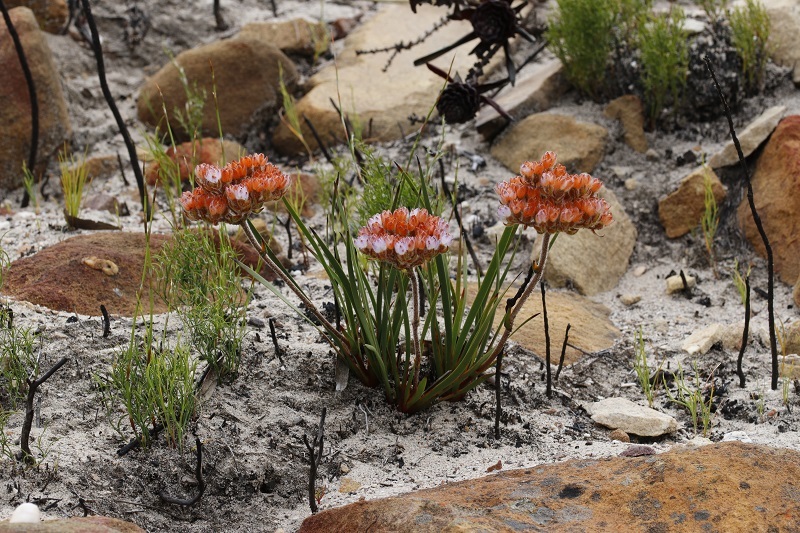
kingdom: Plantae
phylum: Tracheophyta
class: Liliopsida
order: Commelinales
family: Haemodoraceae
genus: Dilatris
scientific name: Dilatris pillansii
